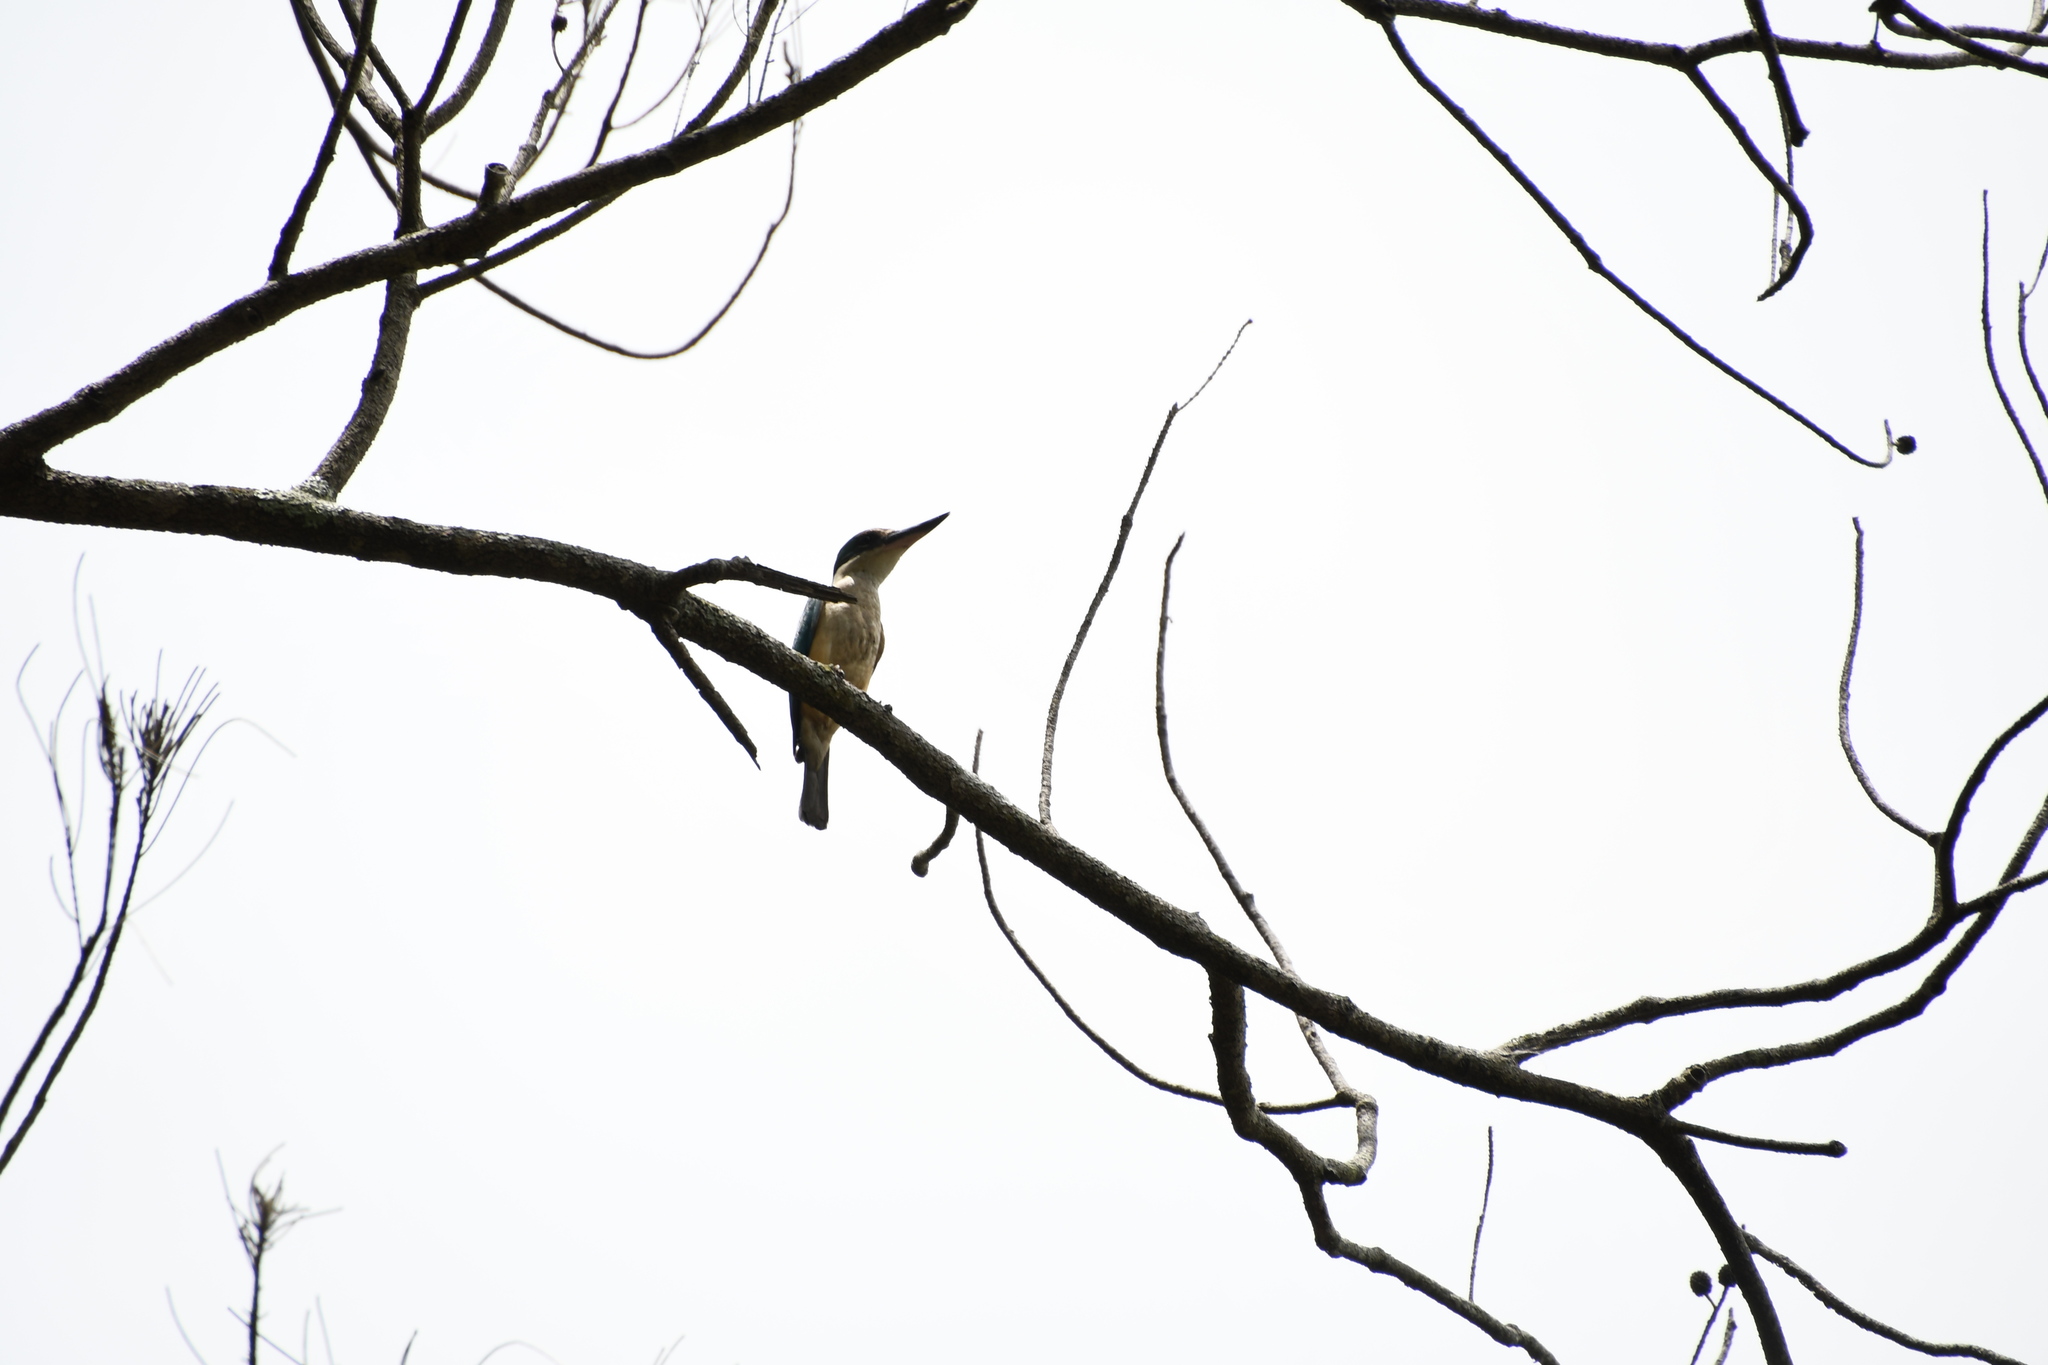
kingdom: Animalia
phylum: Chordata
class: Aves
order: Coraciiformes
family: Alcedinidae
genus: Todiramphus
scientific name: Todiramphus sanctus
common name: Sacred kingfisher
